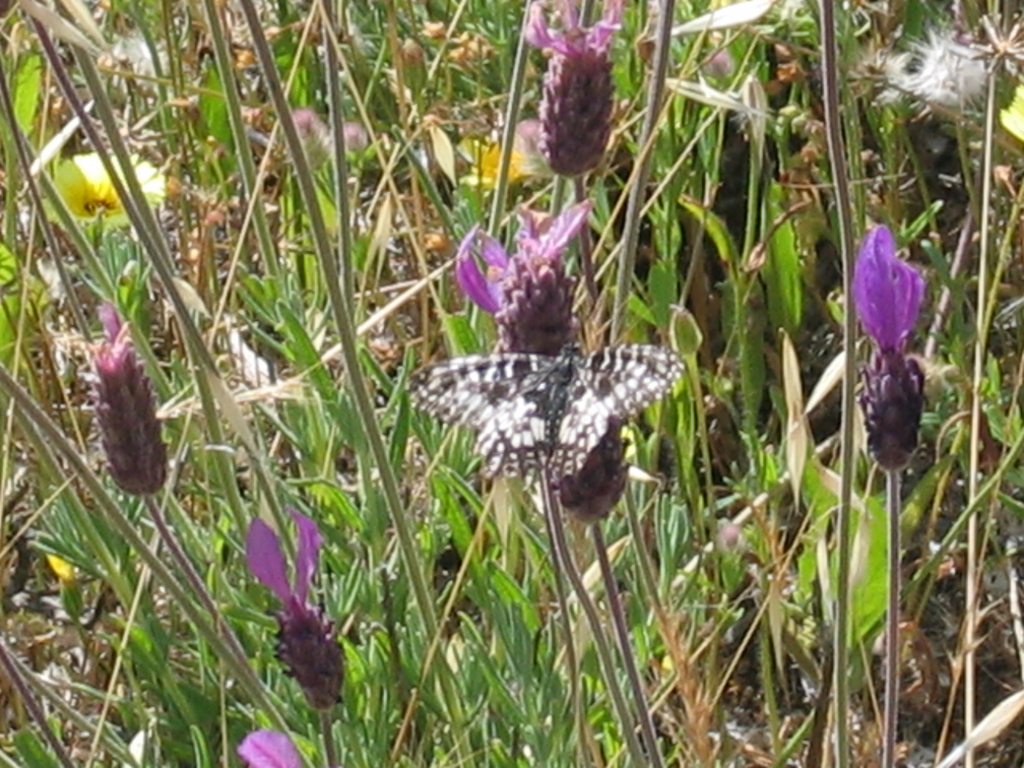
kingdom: Animalia
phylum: Arthropoda
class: Insecta
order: Lepidoptera
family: Papilionidae
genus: Zerynthia
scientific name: Zerynthia rumina
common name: Spanish festoon
